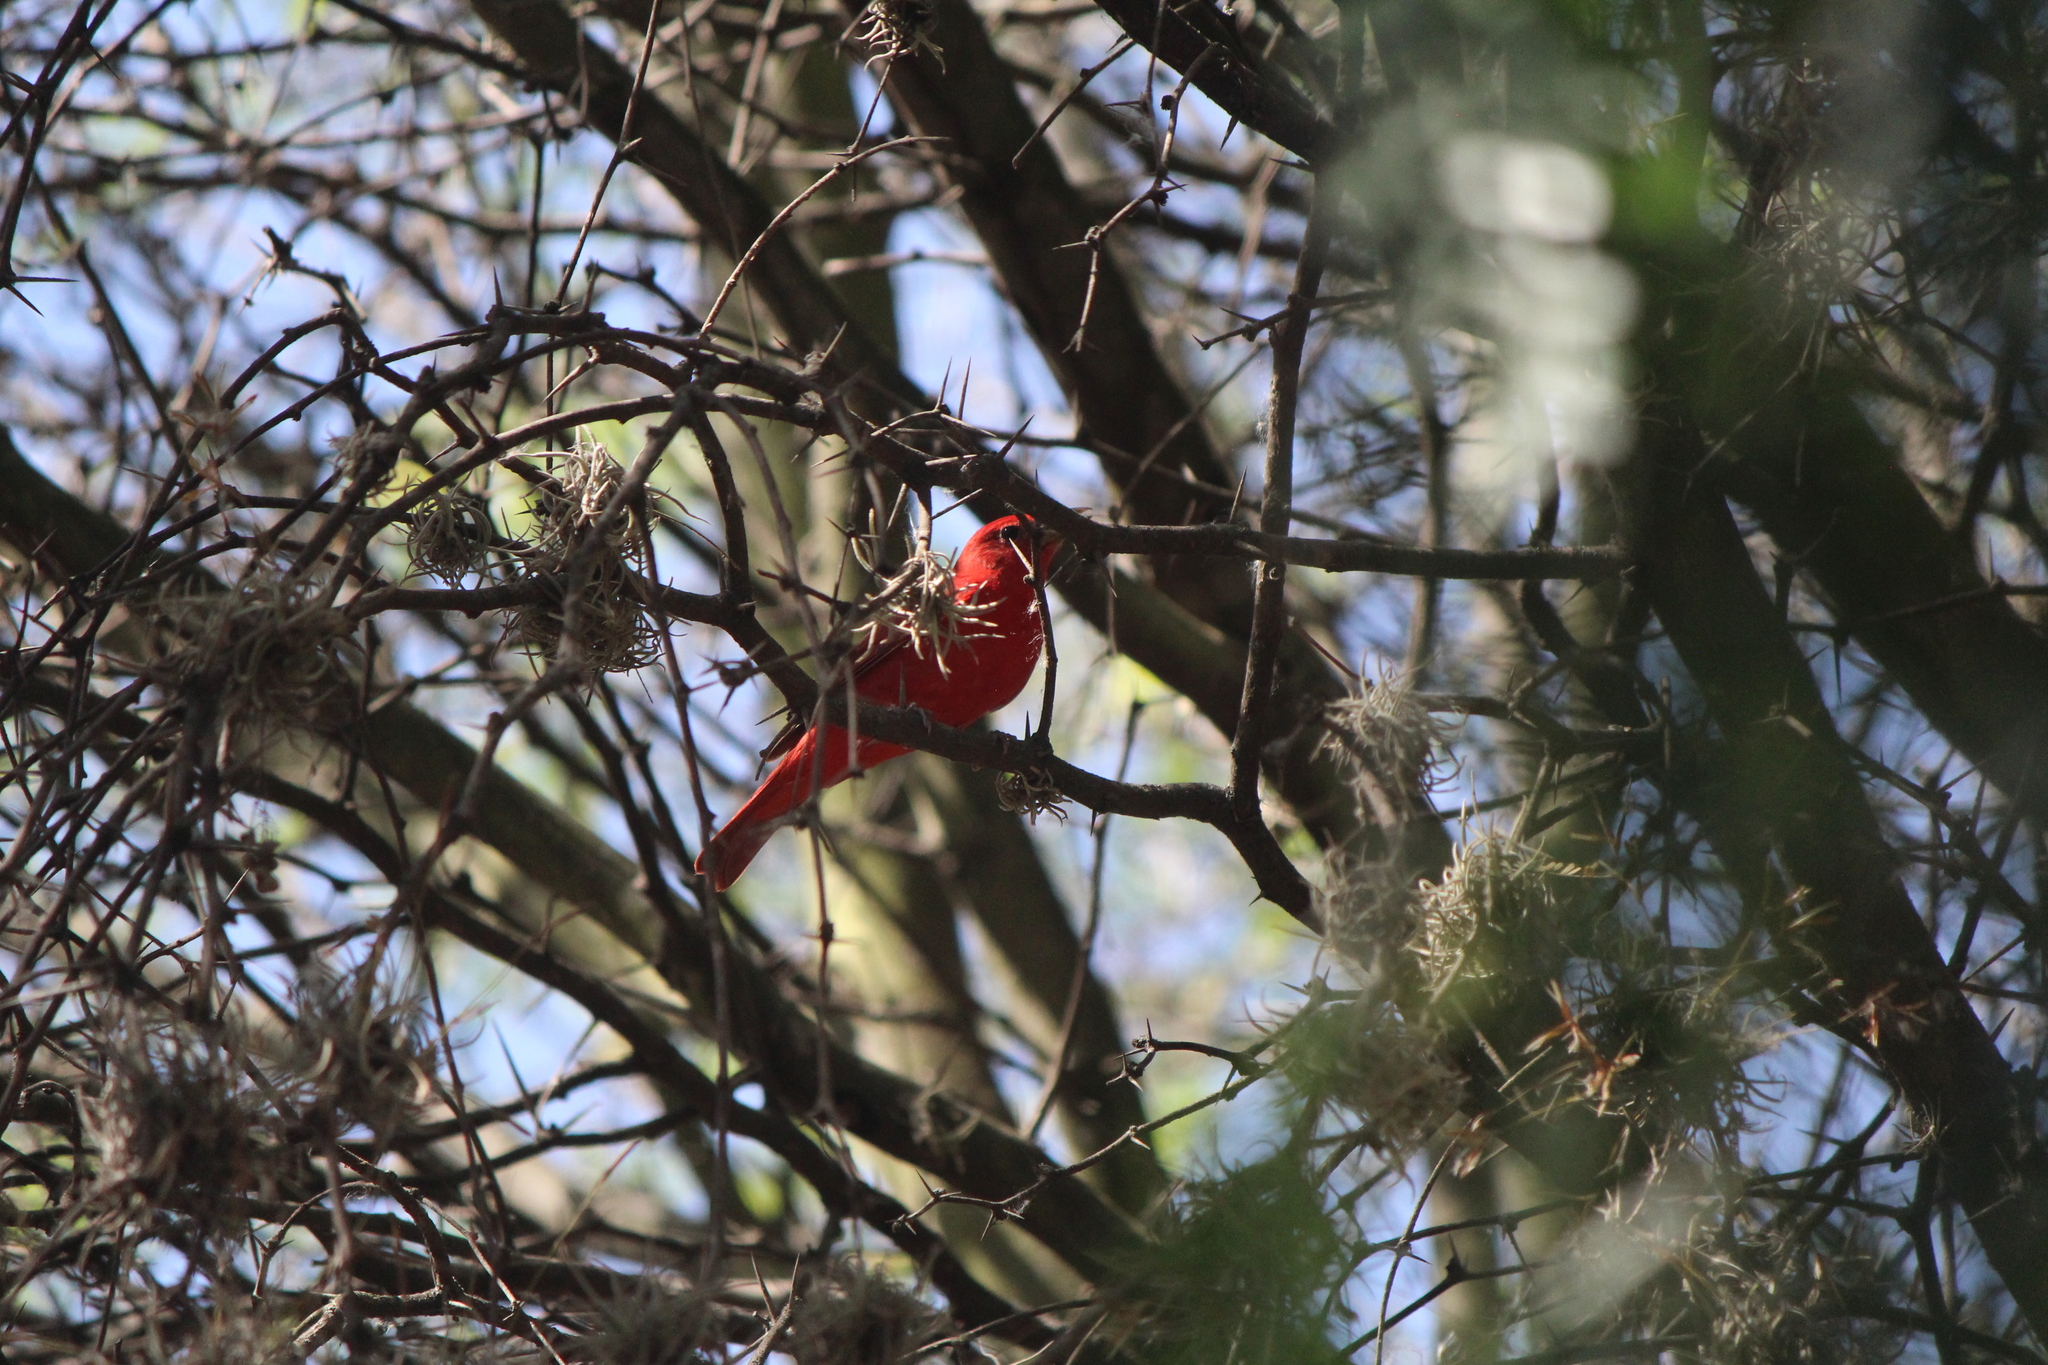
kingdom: Animalia
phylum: Chordata
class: Aves
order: Passeriformes
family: Cardinalidae
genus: Piranga
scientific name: Piranga rubra
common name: Summer tanager
